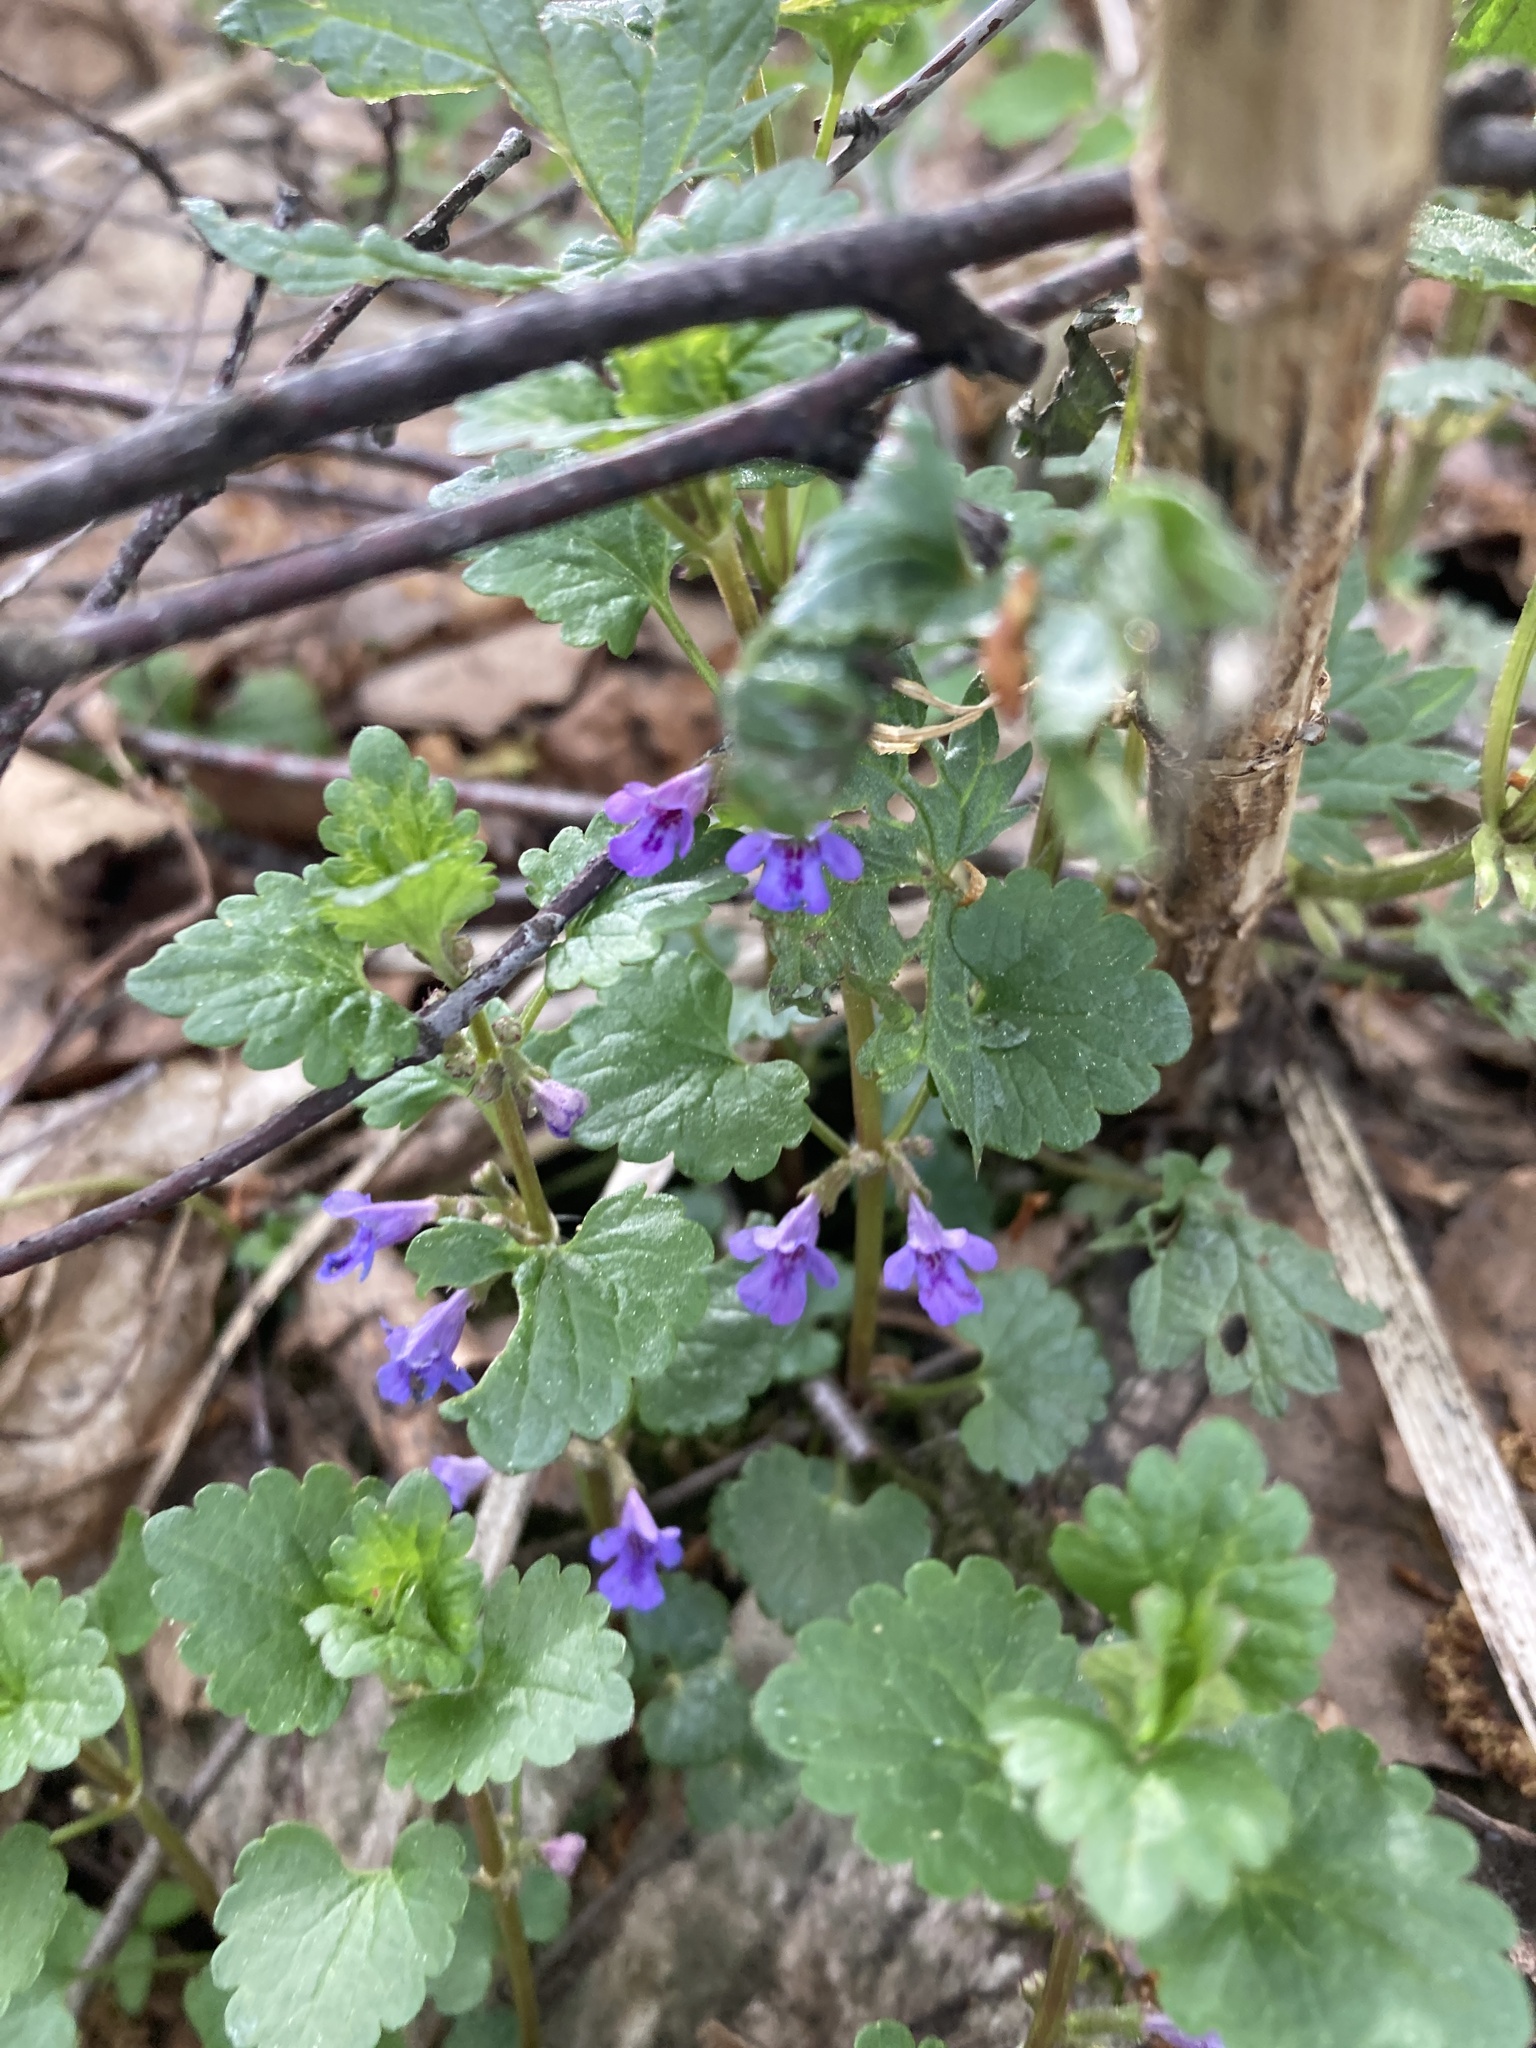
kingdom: Plantae
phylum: Tracheophyta
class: Magnoliopsida
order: Lamiales
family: Lamiaceae
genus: Glechoma
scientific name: Glechoma hederacea
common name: Ground ivy
